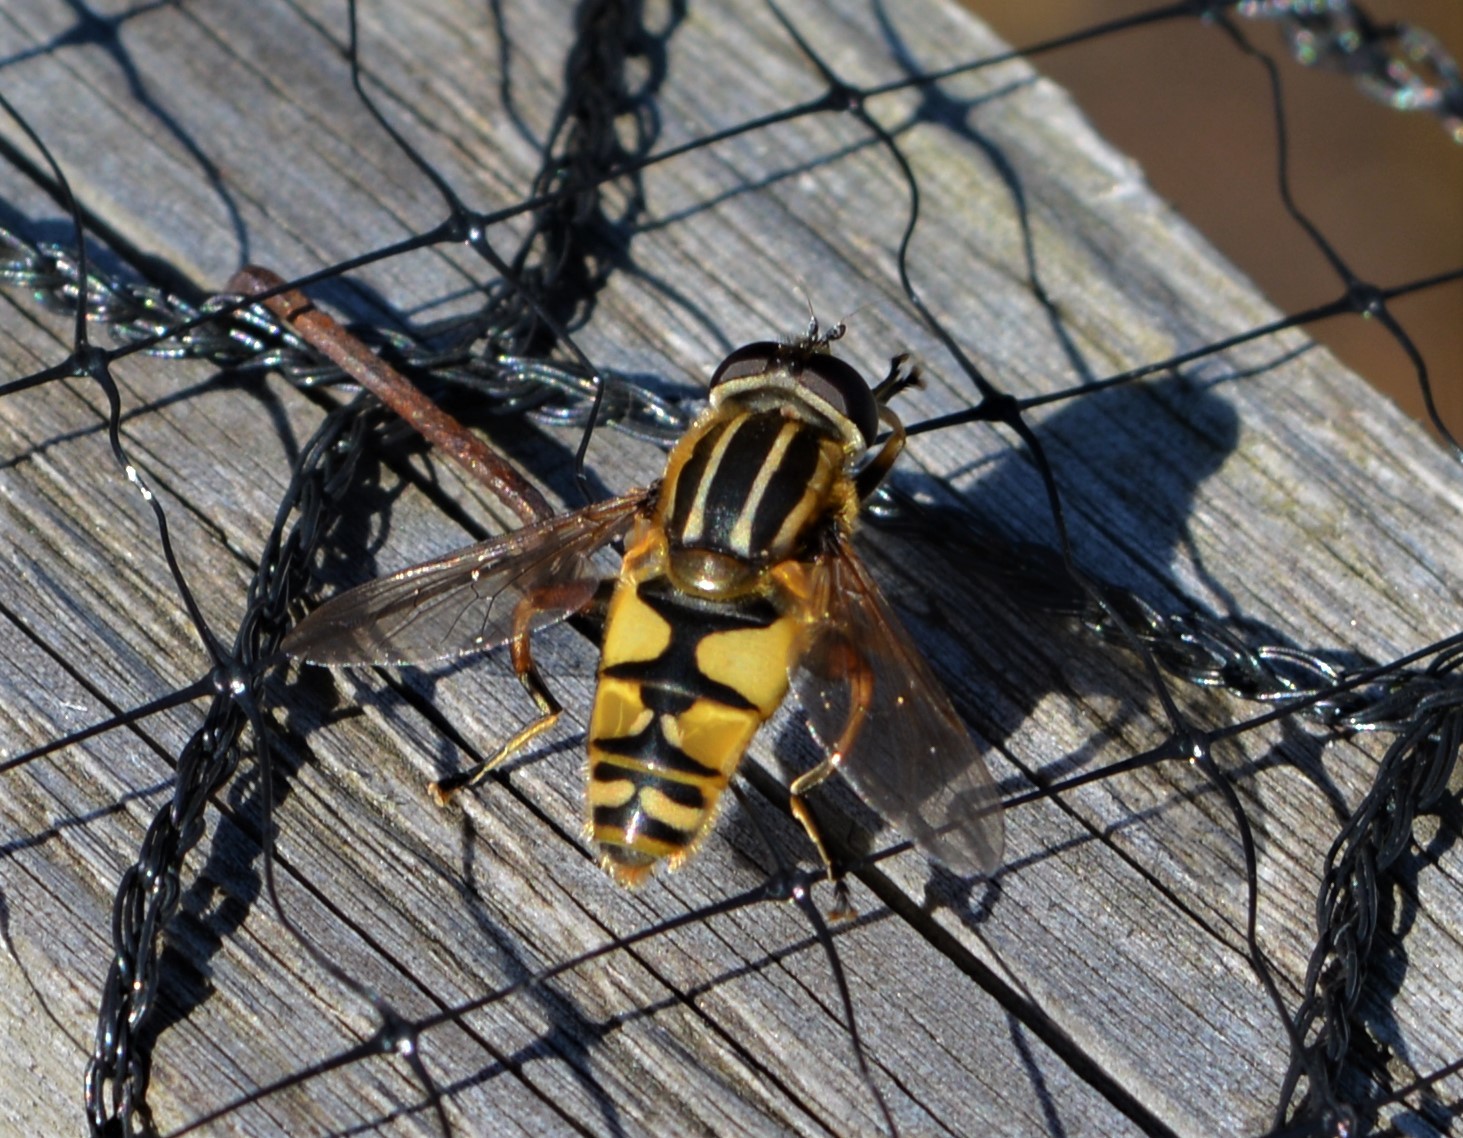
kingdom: Animalia
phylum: Arthropoda
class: Insecta
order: Diptera
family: Syrphidae
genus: Helophilus
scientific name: Helophilus pendulus
